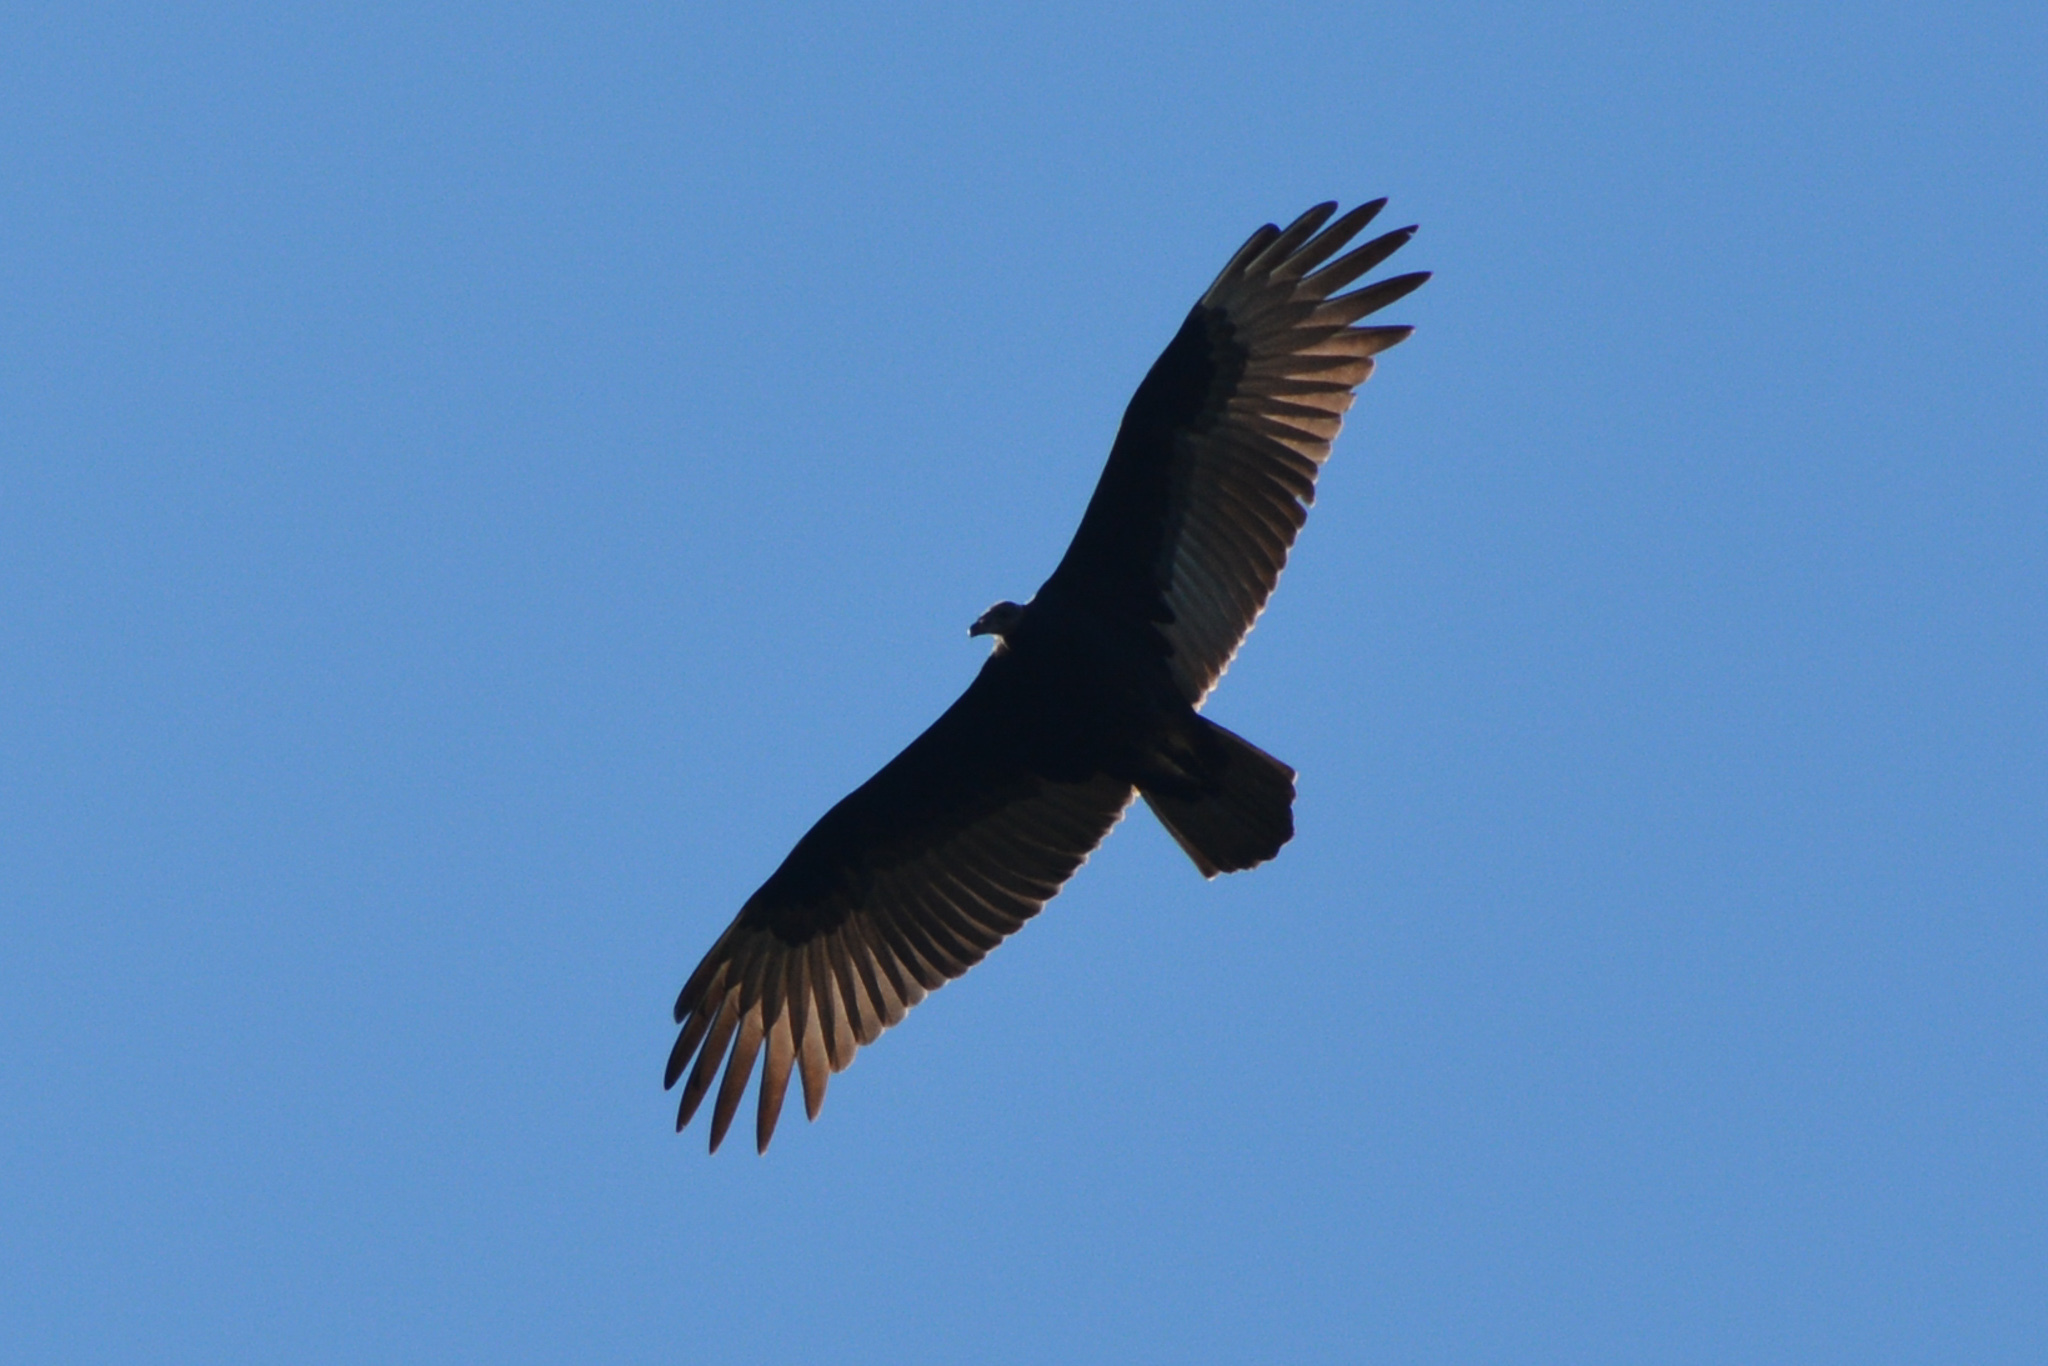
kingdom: Animalia
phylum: Chordata
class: Aves
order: Accipitriformes
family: Cathartidae
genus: Cathartes
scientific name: Cathartes aura
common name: Turkey vulture
